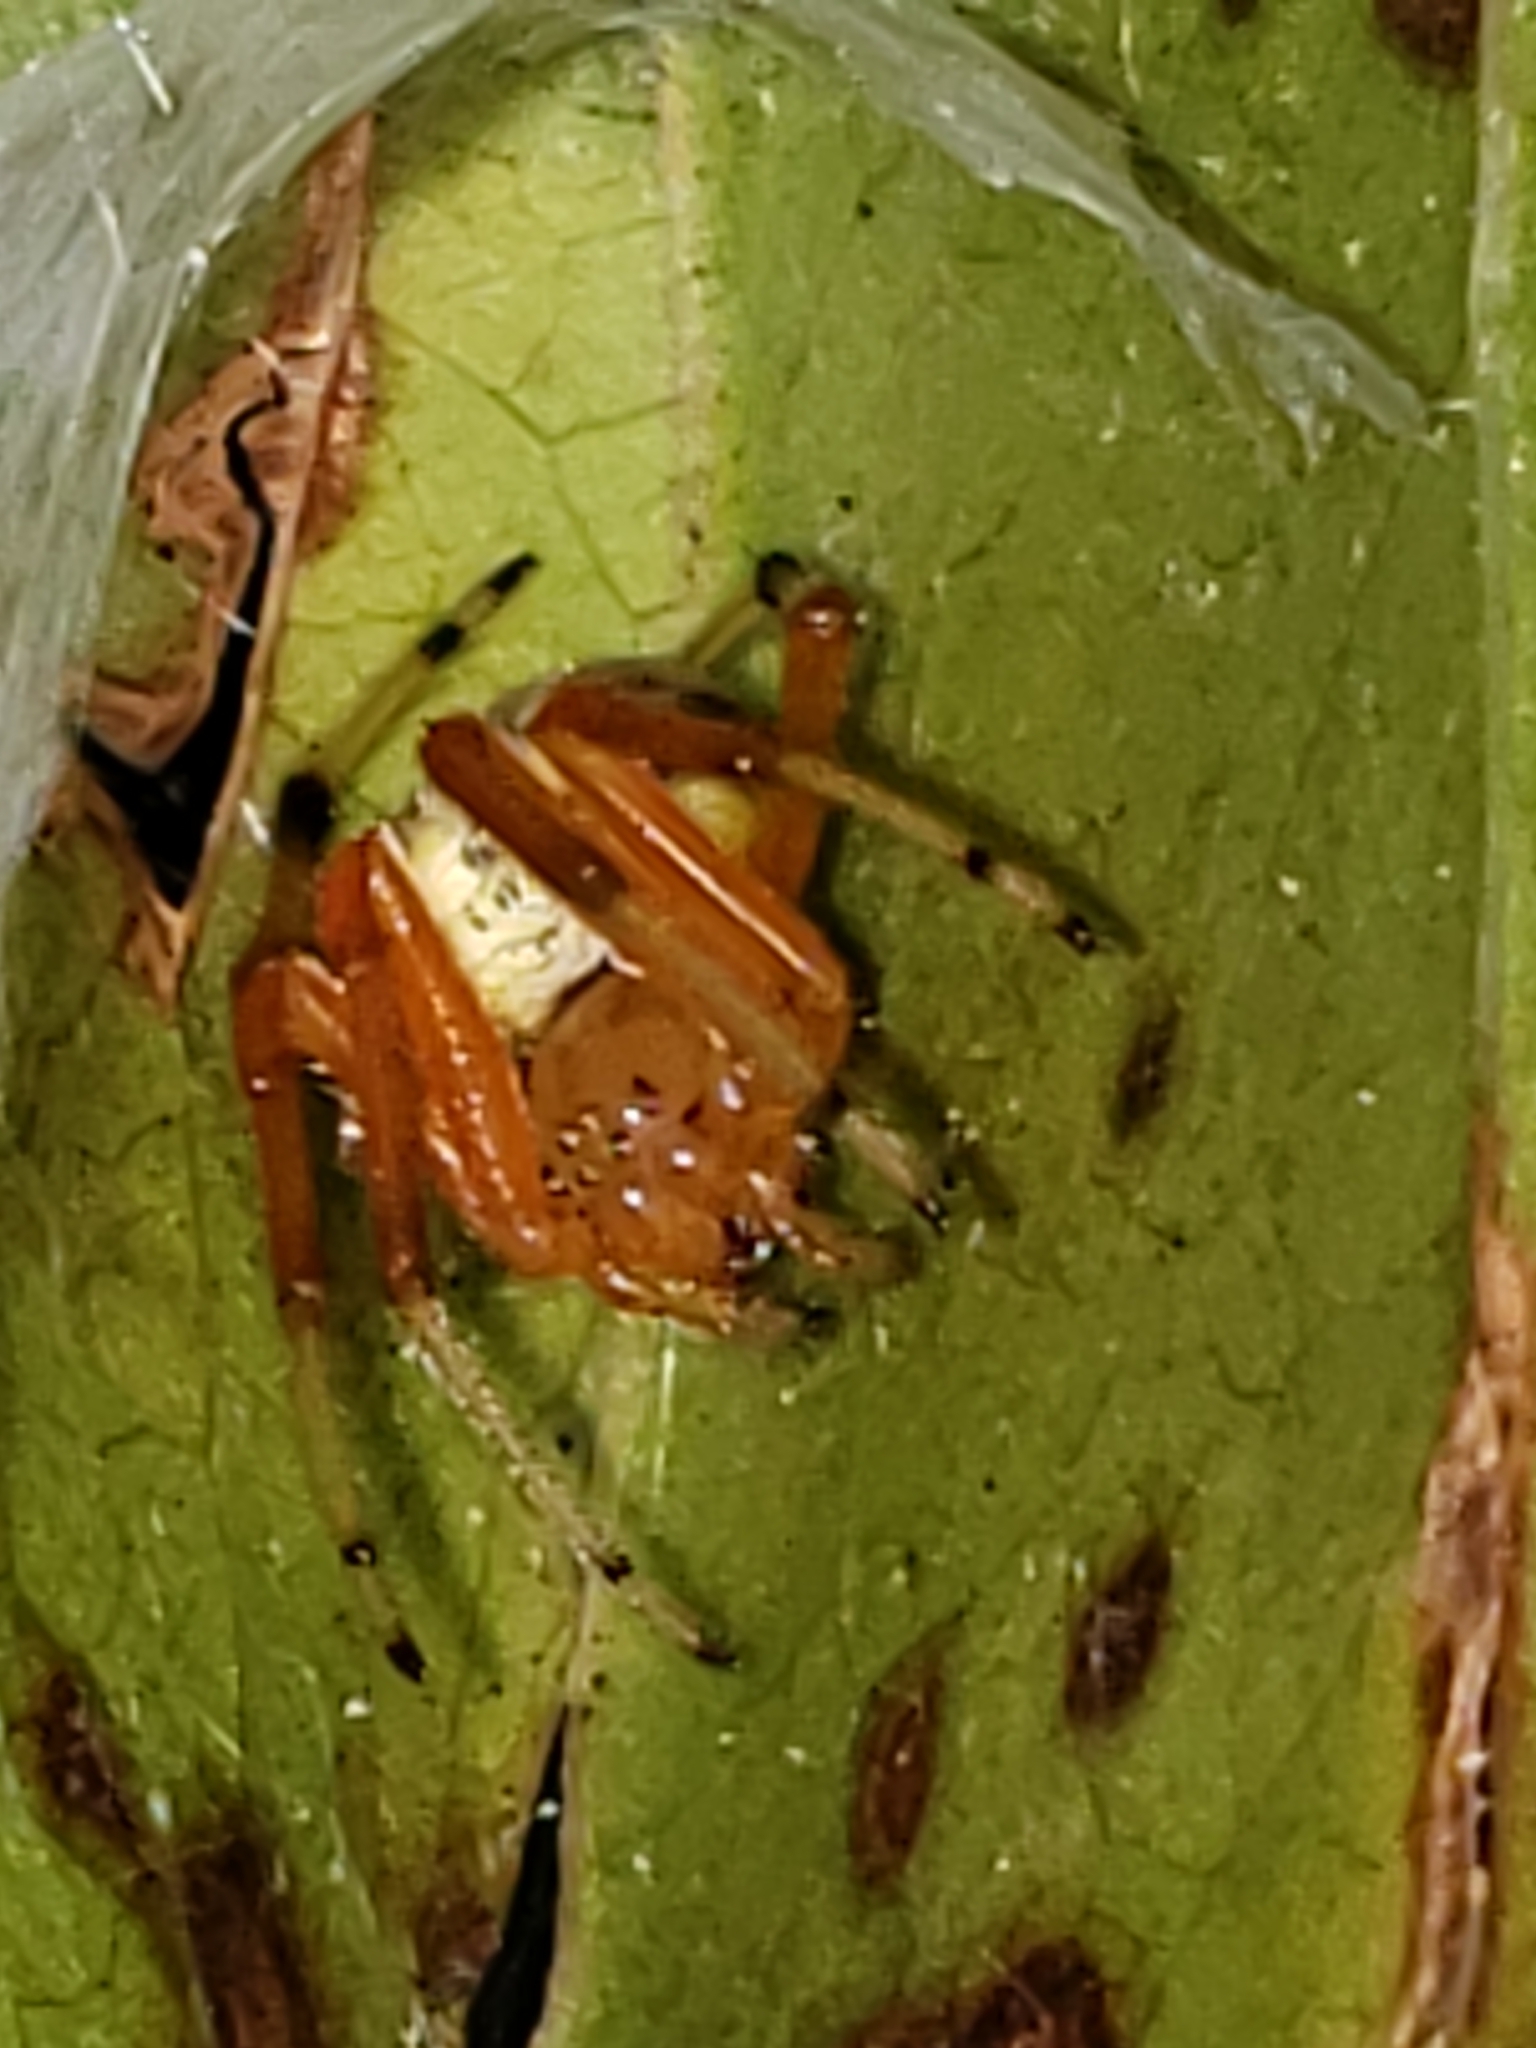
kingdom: Animalia
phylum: Arthropoda
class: Arachnida
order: Araneae
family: Araneidae
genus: Araneus
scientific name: Araneus marmoreus
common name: Marbled orbweaver
